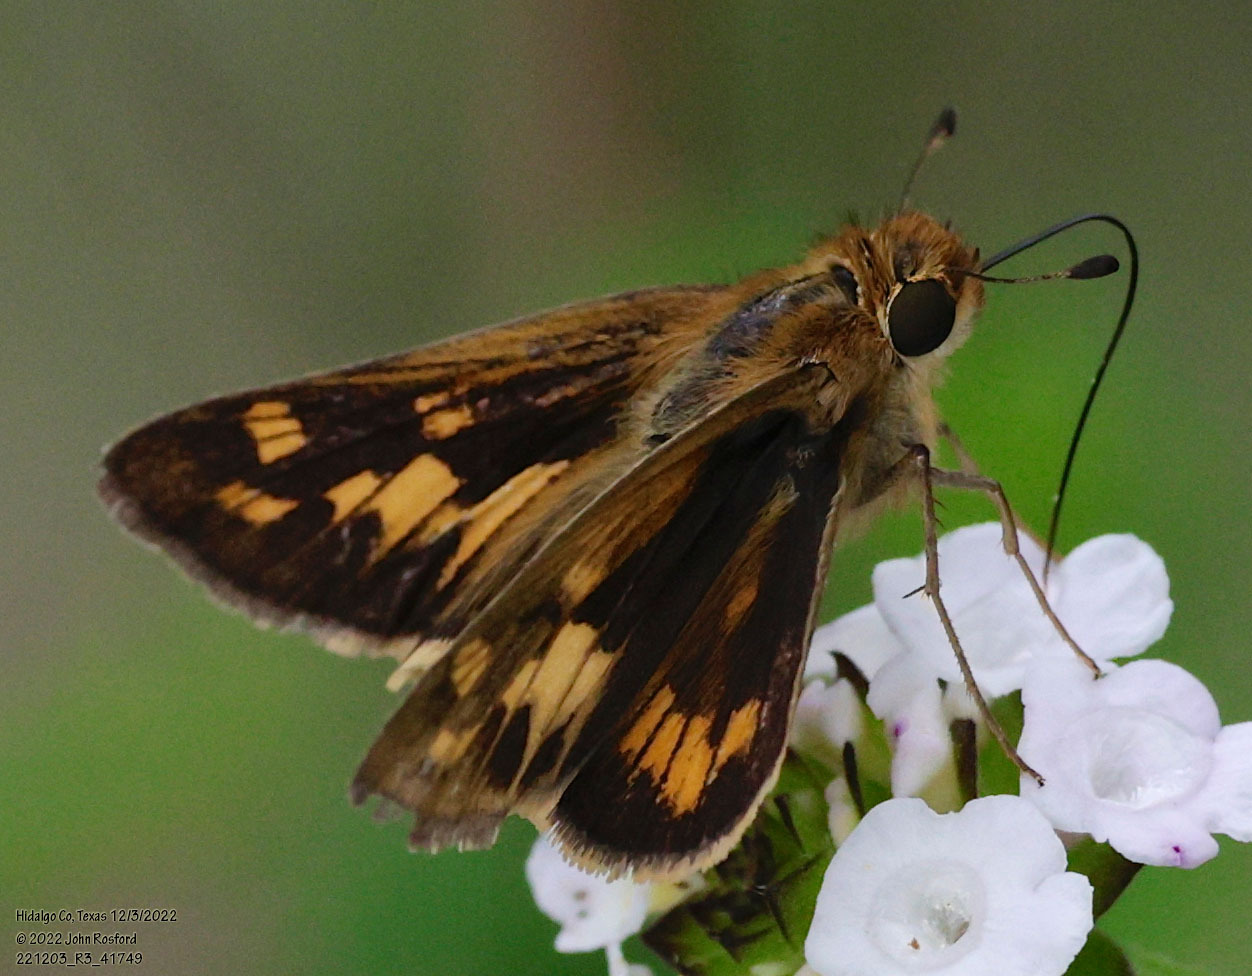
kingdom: Animalia
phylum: Arthropoda
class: Insecta
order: Lepidoptera
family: Hesperiidae
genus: Hylephila
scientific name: Hylephila phyleus
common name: Fiery skipper
